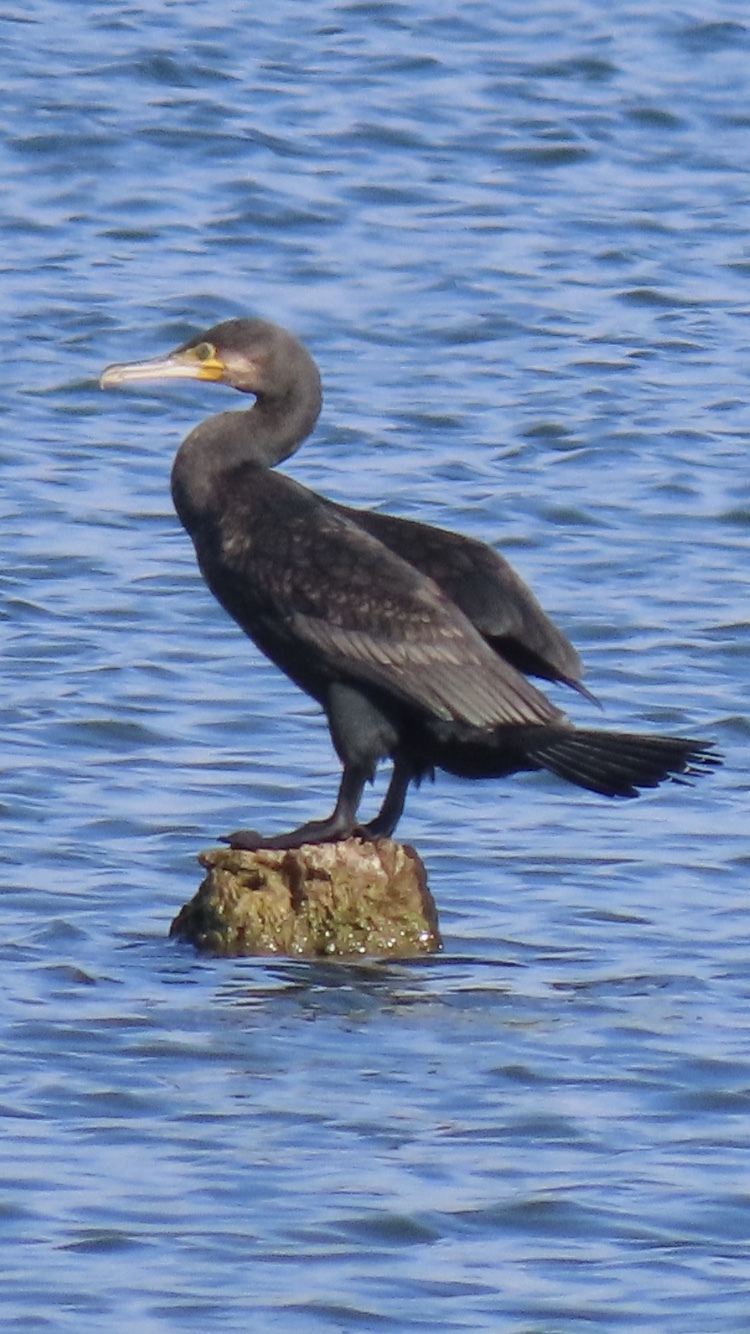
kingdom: Animalia
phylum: Chordata
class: Aves
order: Suliformes
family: Phalacrocoracidae
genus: Phalacrocorax
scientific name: Phalacrocorax carbo
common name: Great cormorant
